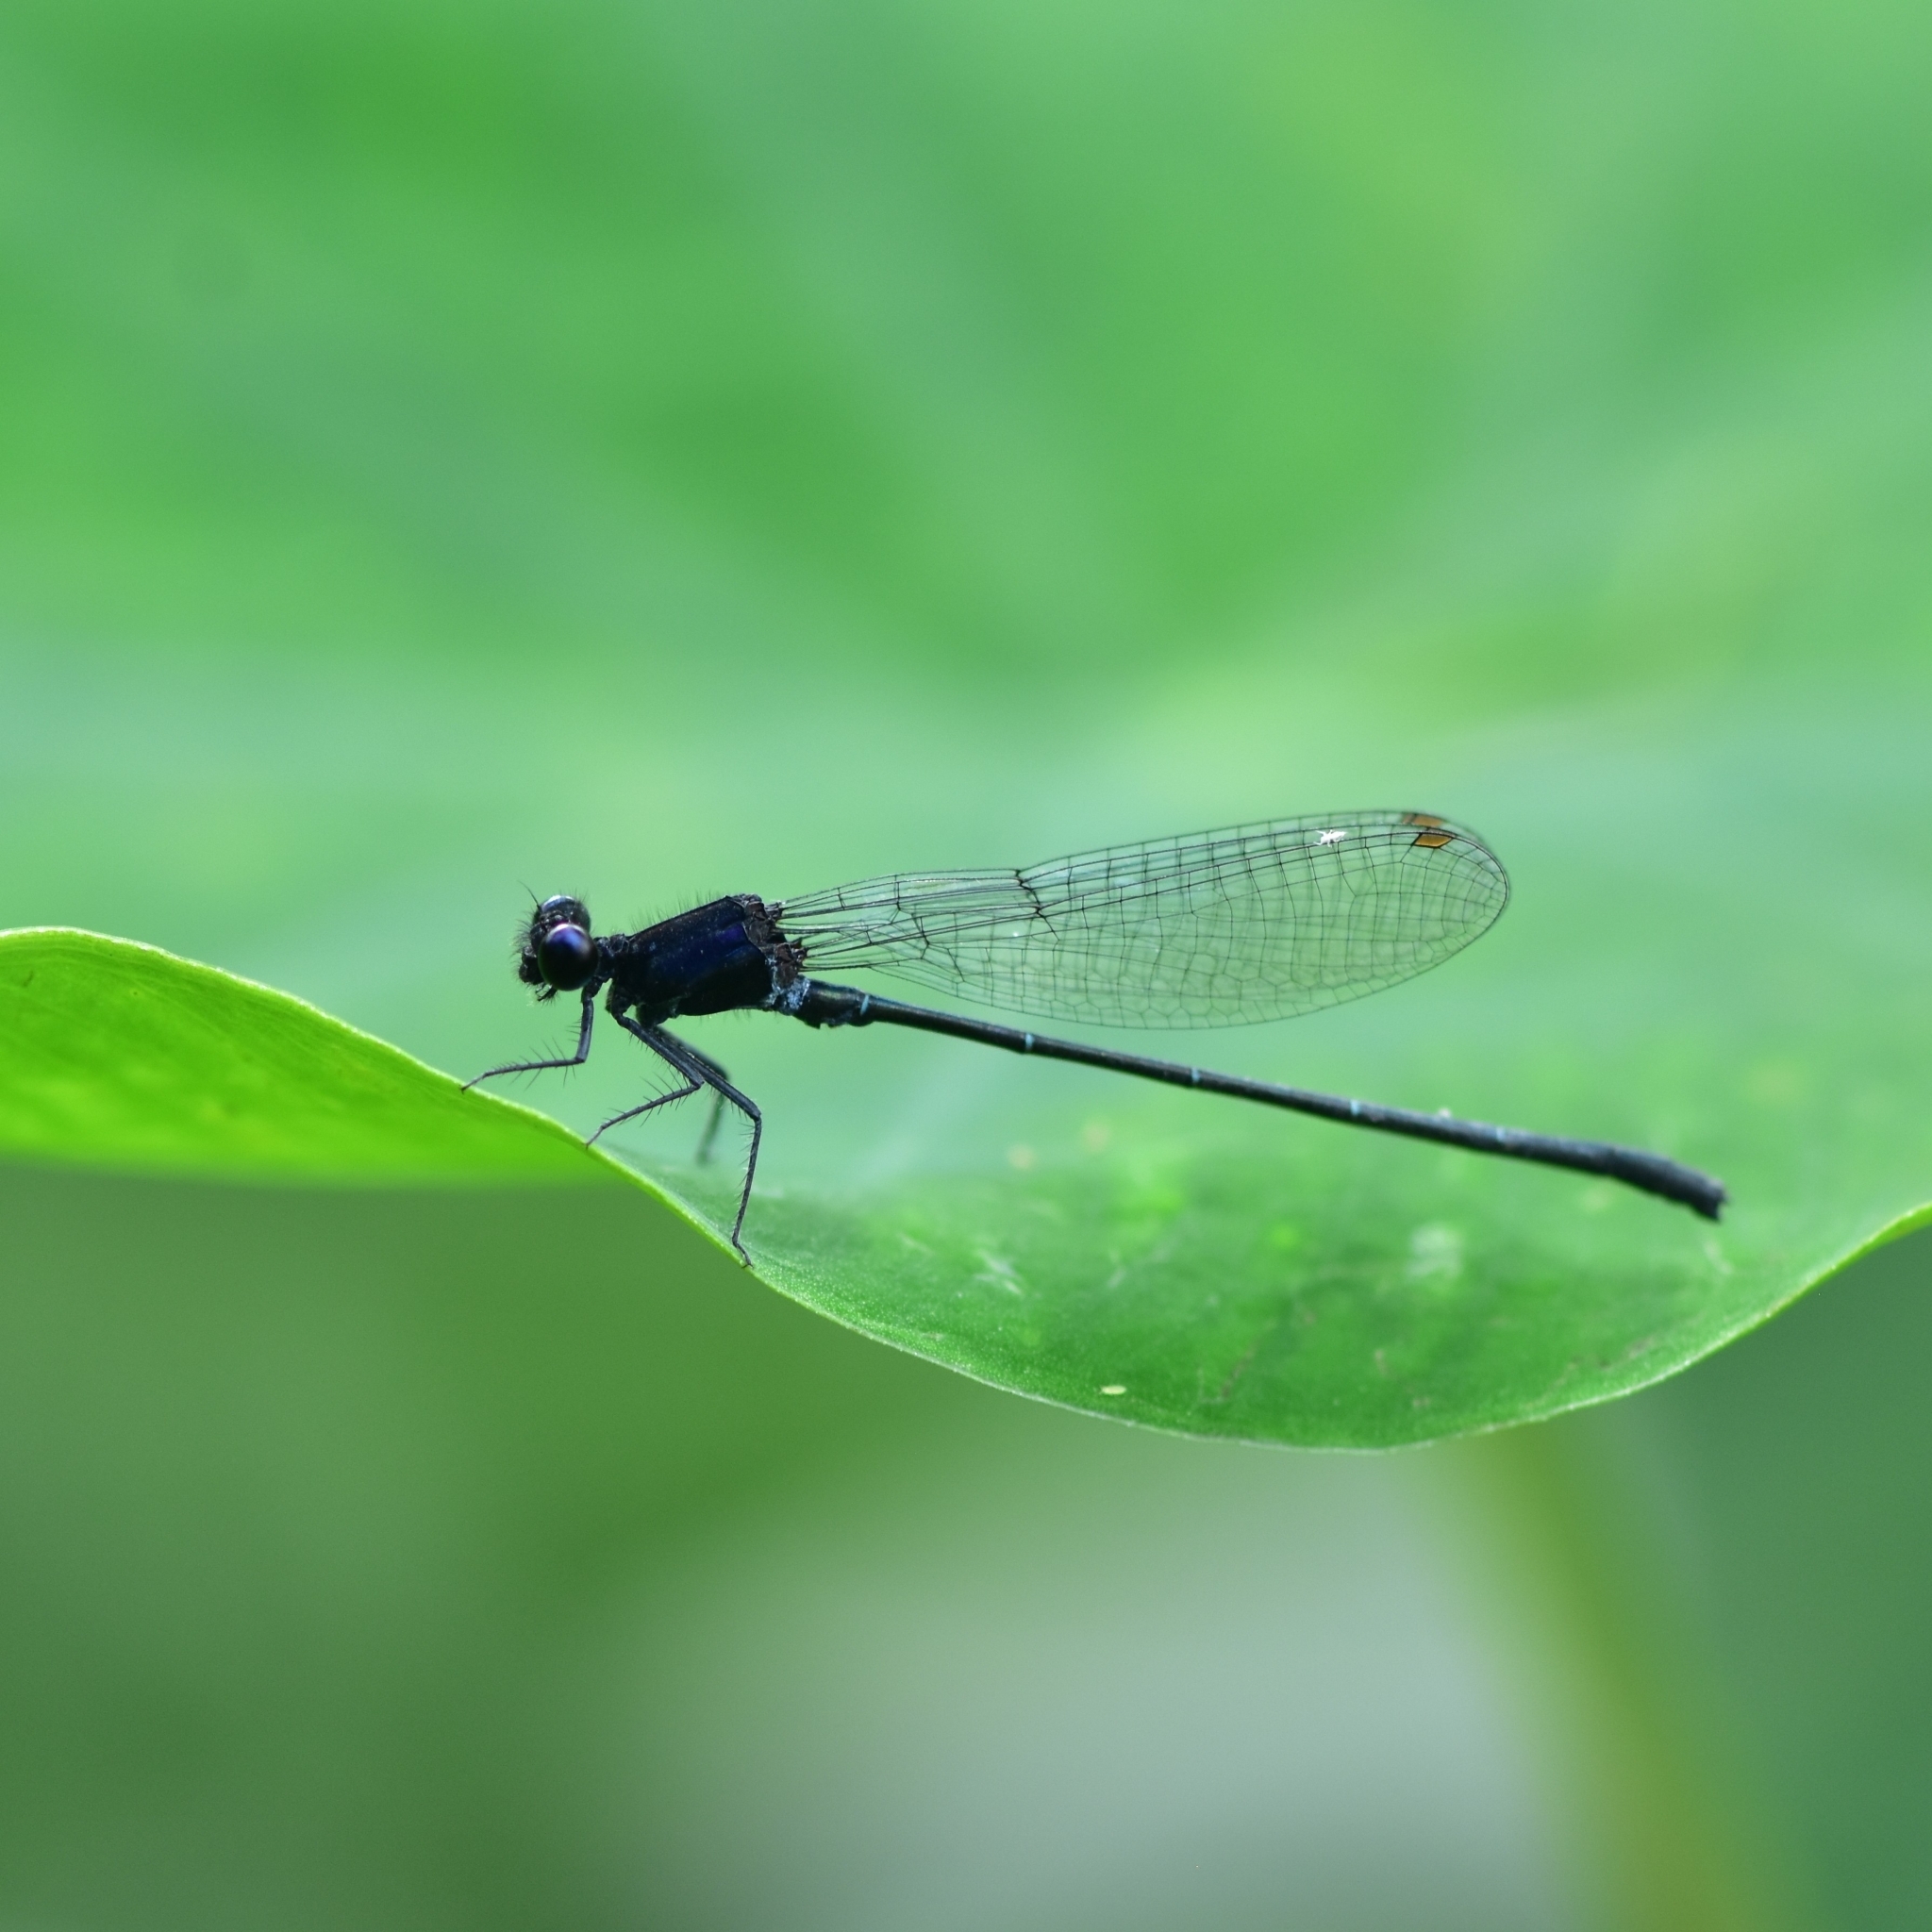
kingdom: Animalia
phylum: Arthropoda
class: Insecta
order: Odonata
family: Platycnemididae
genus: Onychargia
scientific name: Onychargia atrocyana
